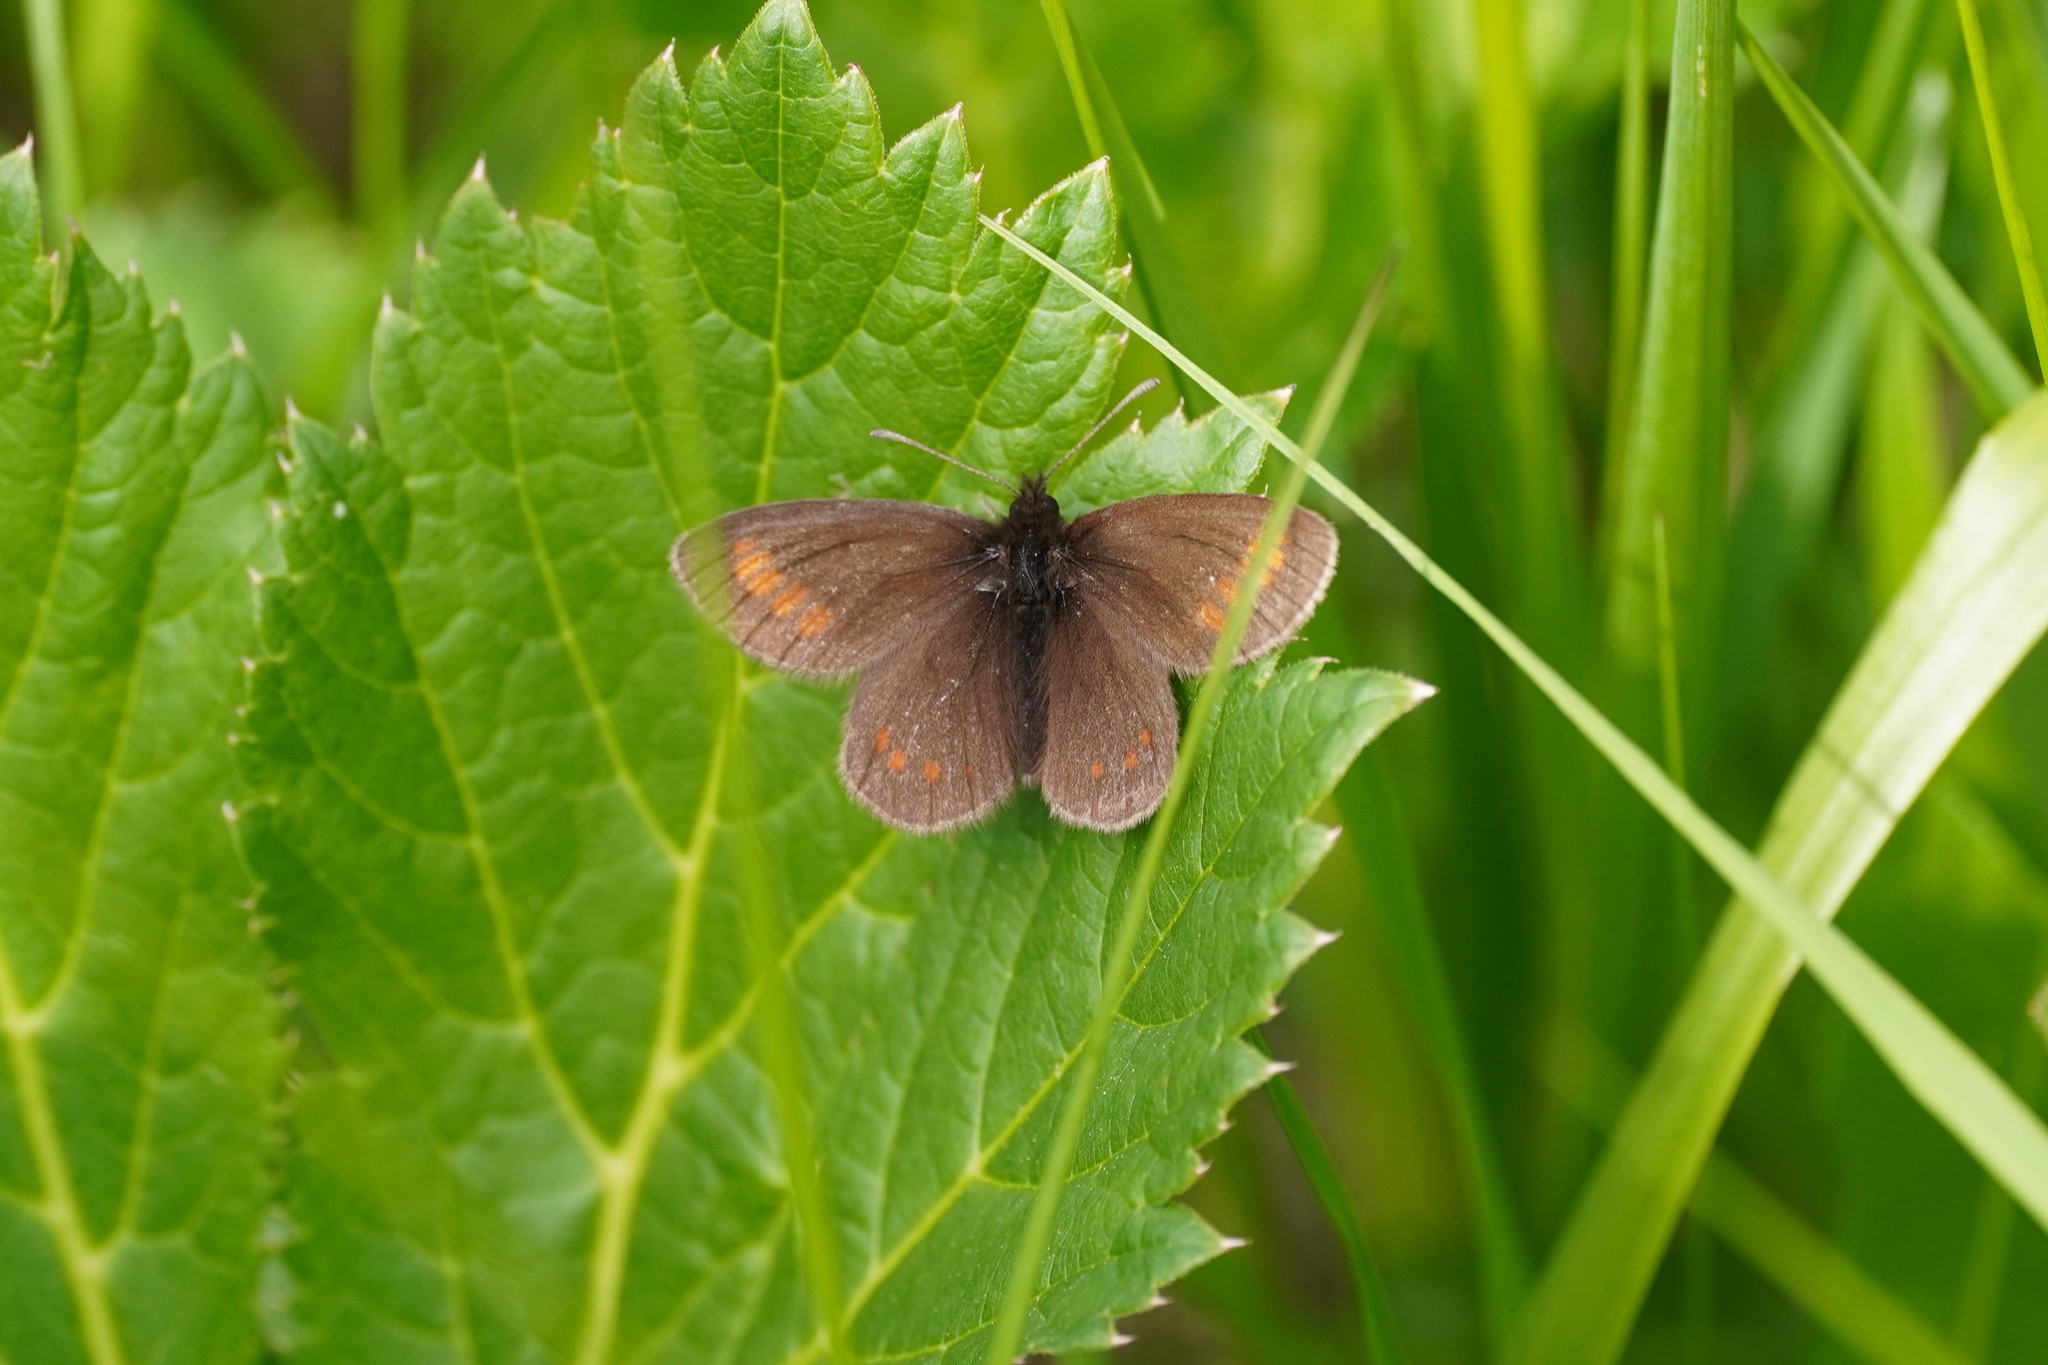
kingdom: Animalia
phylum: Arthropoda
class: Insecta
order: Lepidoptera
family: Nymphalidae
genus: Erebia
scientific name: Erebia pharte
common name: Blind ringlet
